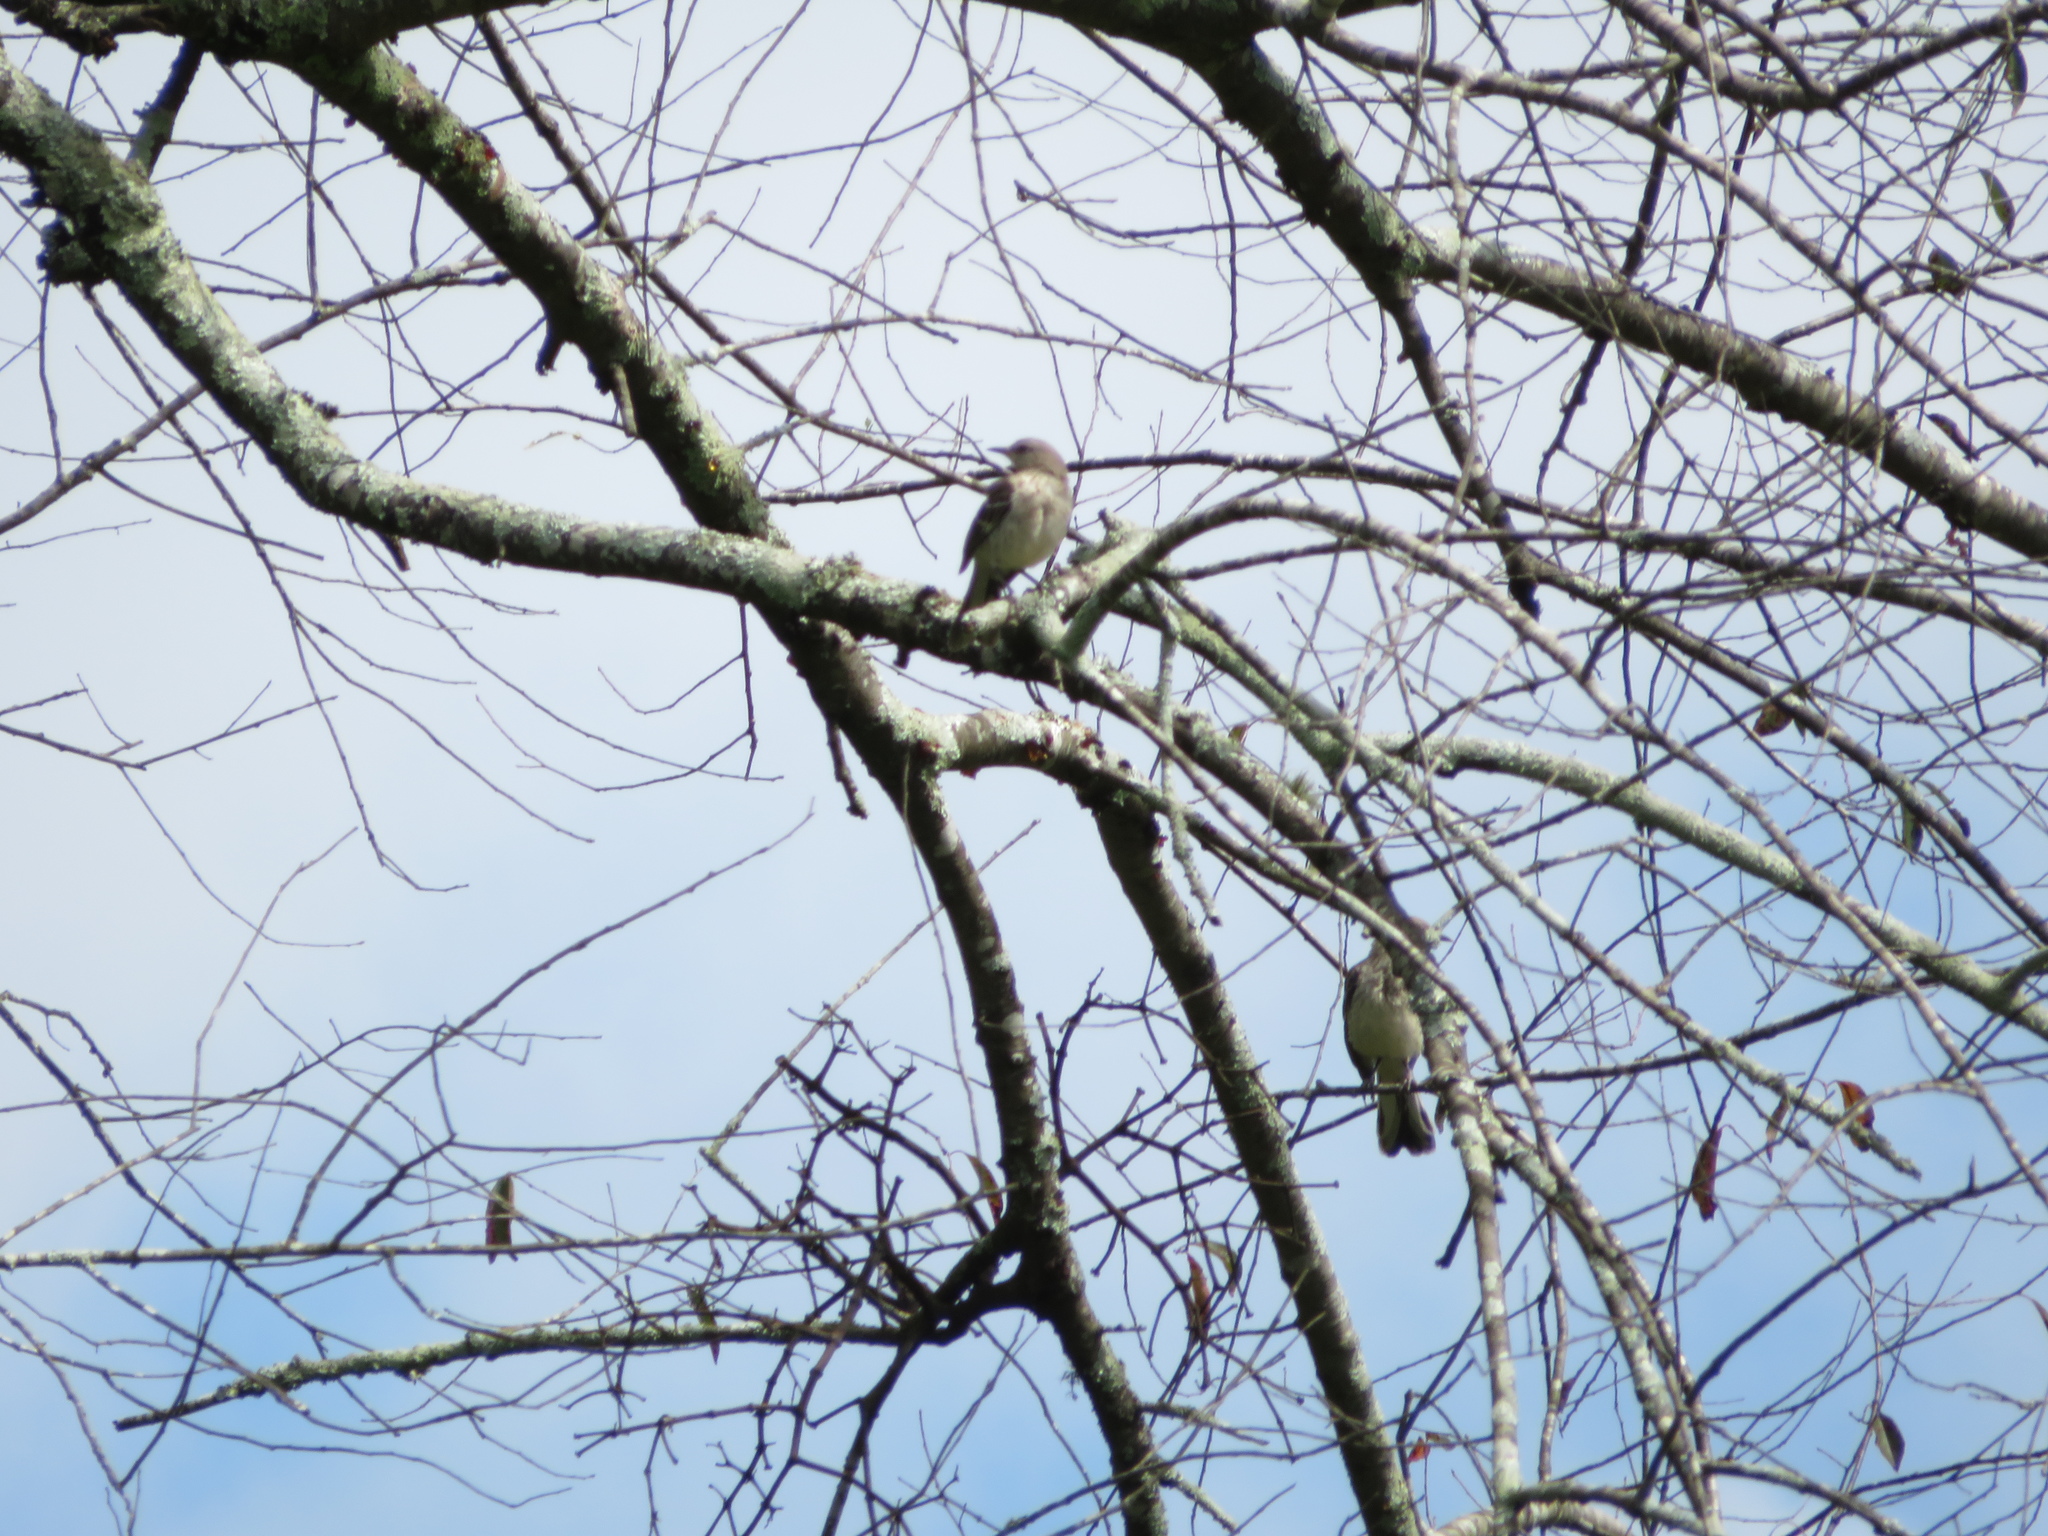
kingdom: Animalia
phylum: Chordata
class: Aves
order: Passeriformes
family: Mimidae
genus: Mimus
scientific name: Mimus polyglottos
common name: Northern mockingbird
